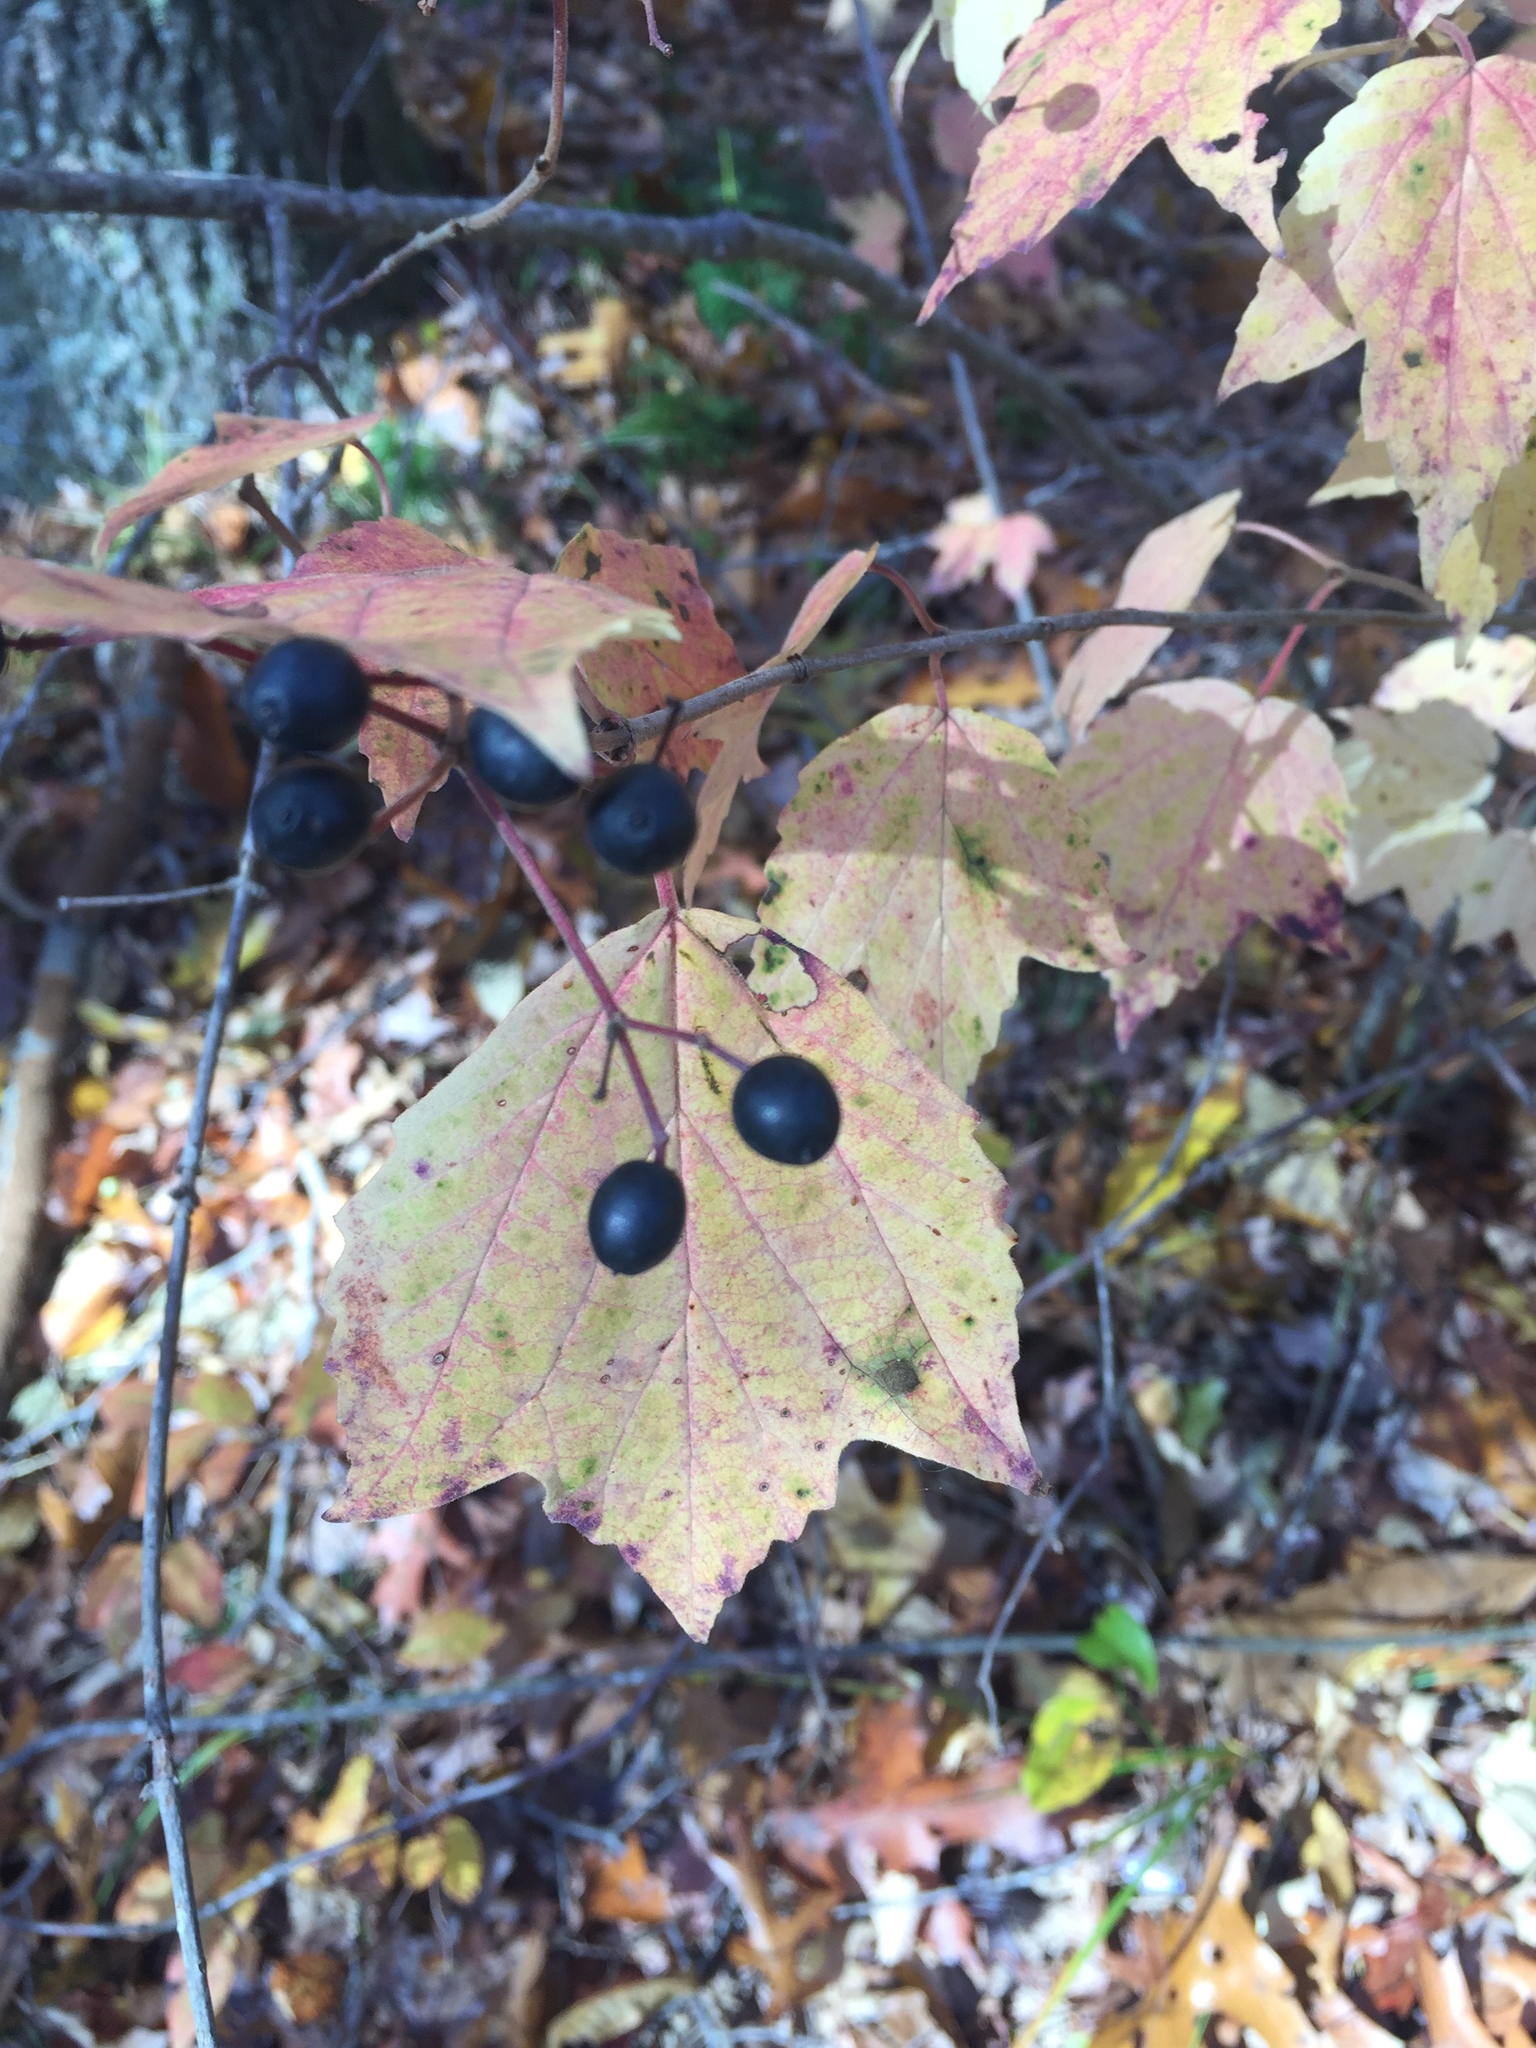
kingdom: Plantae
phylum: Tracheophyta
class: Magnoliopsida
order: Dipsacales
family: Viburnaceae
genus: Viburnum
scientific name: Viburnum acerifolium
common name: Dockmackie
